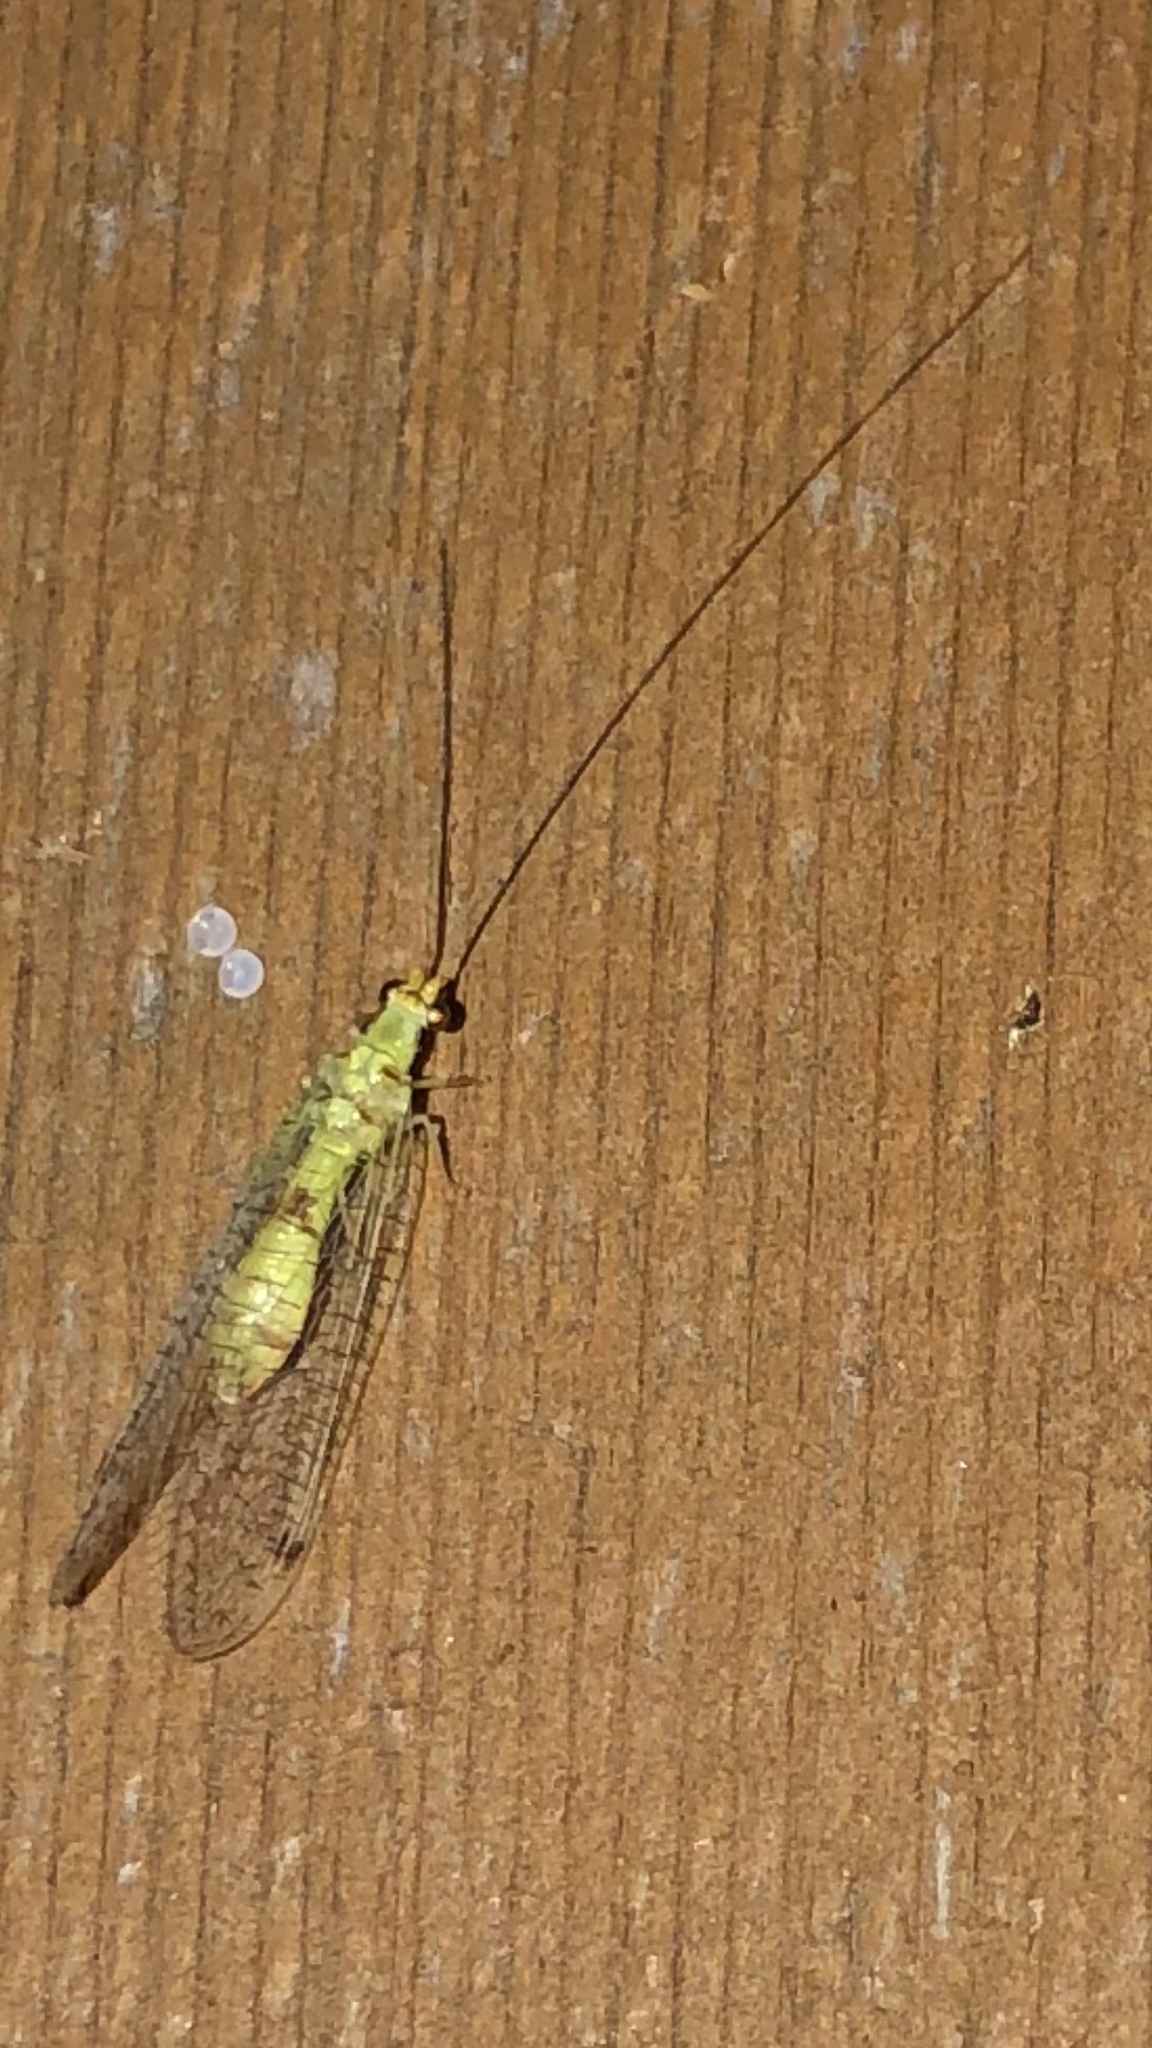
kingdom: Animalia
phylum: Arthropoda
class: Insecta
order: Neuroptera
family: Chrysopidae
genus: Leucochrysa
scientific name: Leucochrysa americana
